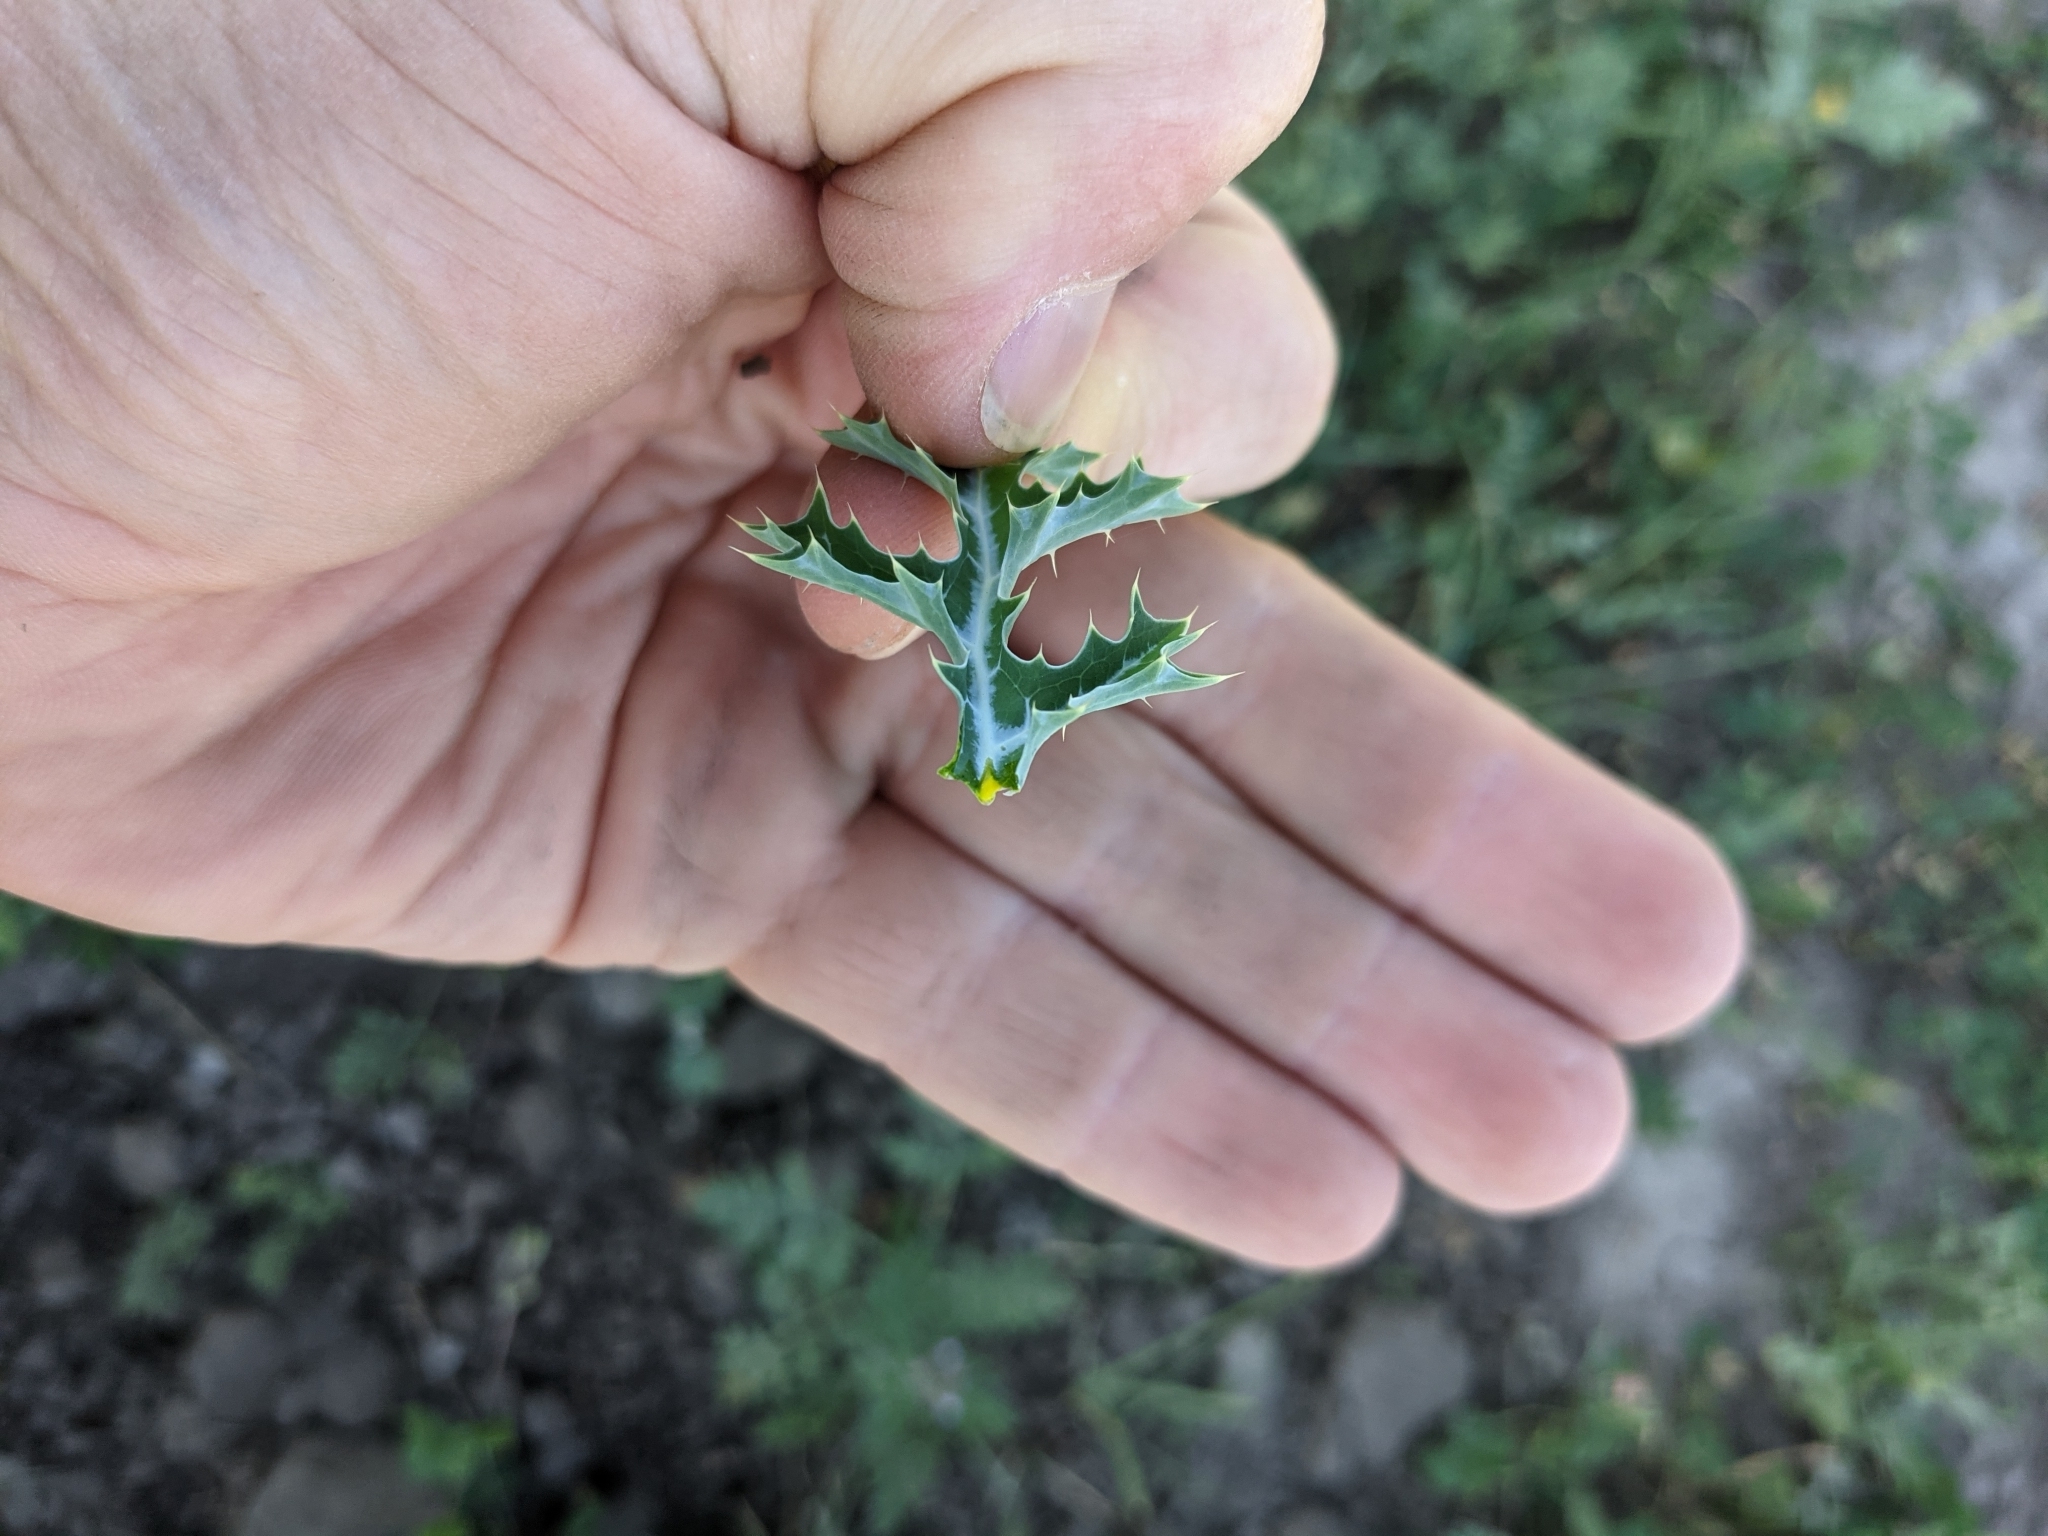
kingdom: Plantae
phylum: Tracheophyta
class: Magnoliopsida
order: Ranunculales
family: Papaveraceae
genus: Argemone
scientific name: Argemone albiflora
